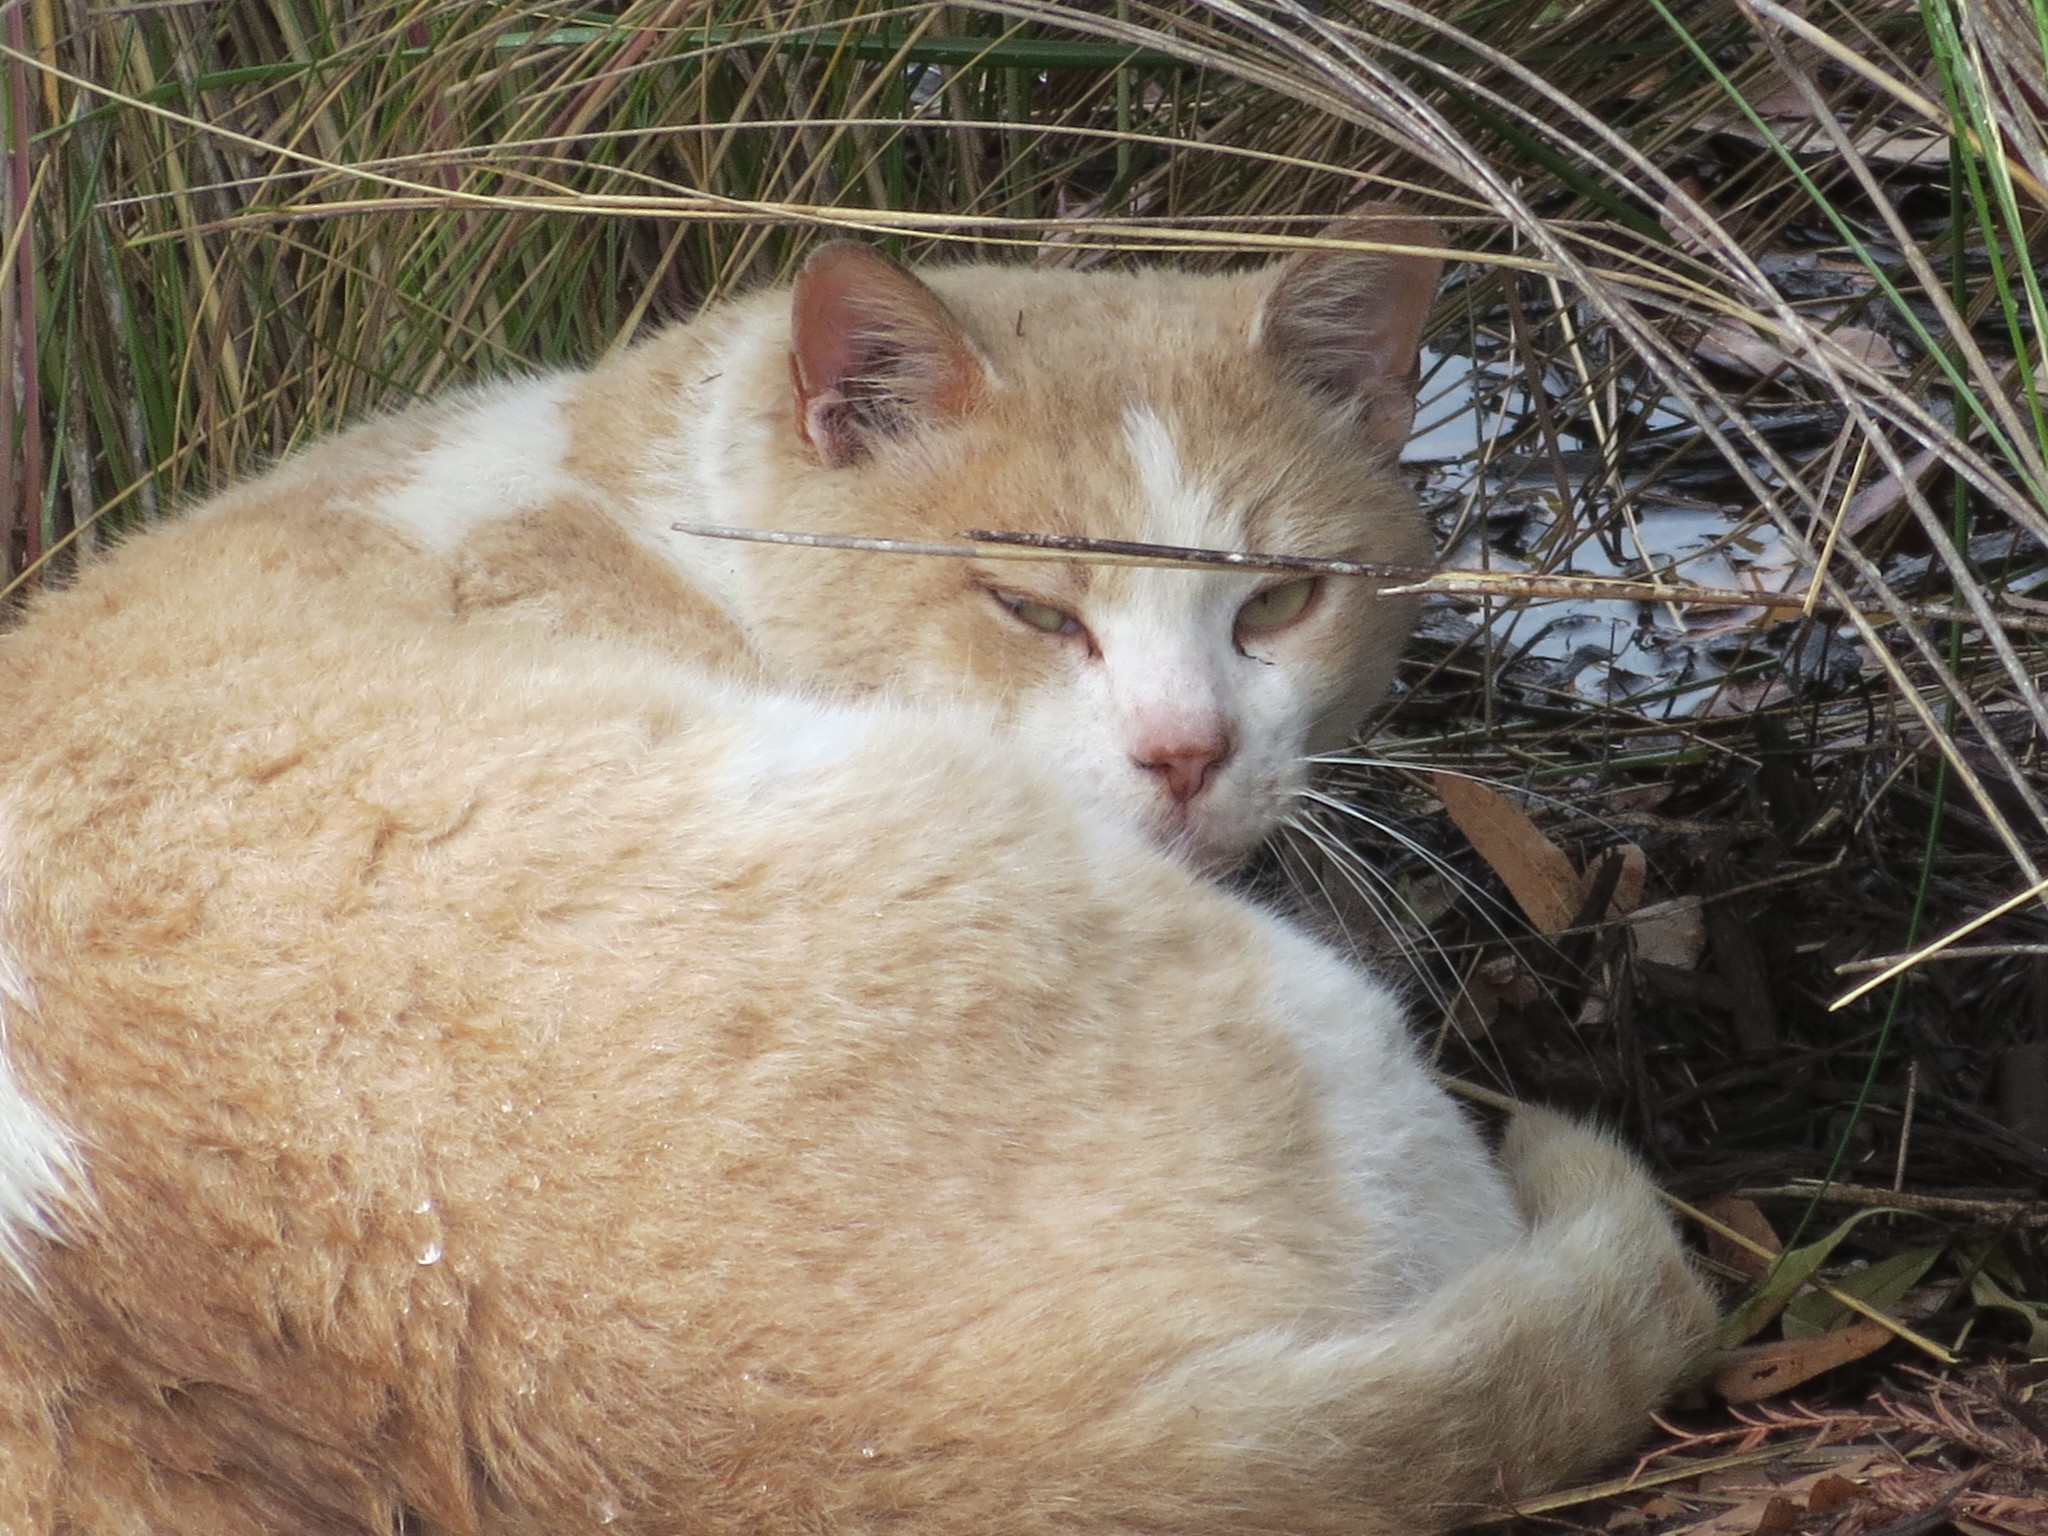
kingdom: Animalia
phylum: Chordata
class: Mammalia
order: Carnivora
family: Felidae
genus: Felis
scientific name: Felis catus
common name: Domestic cat
